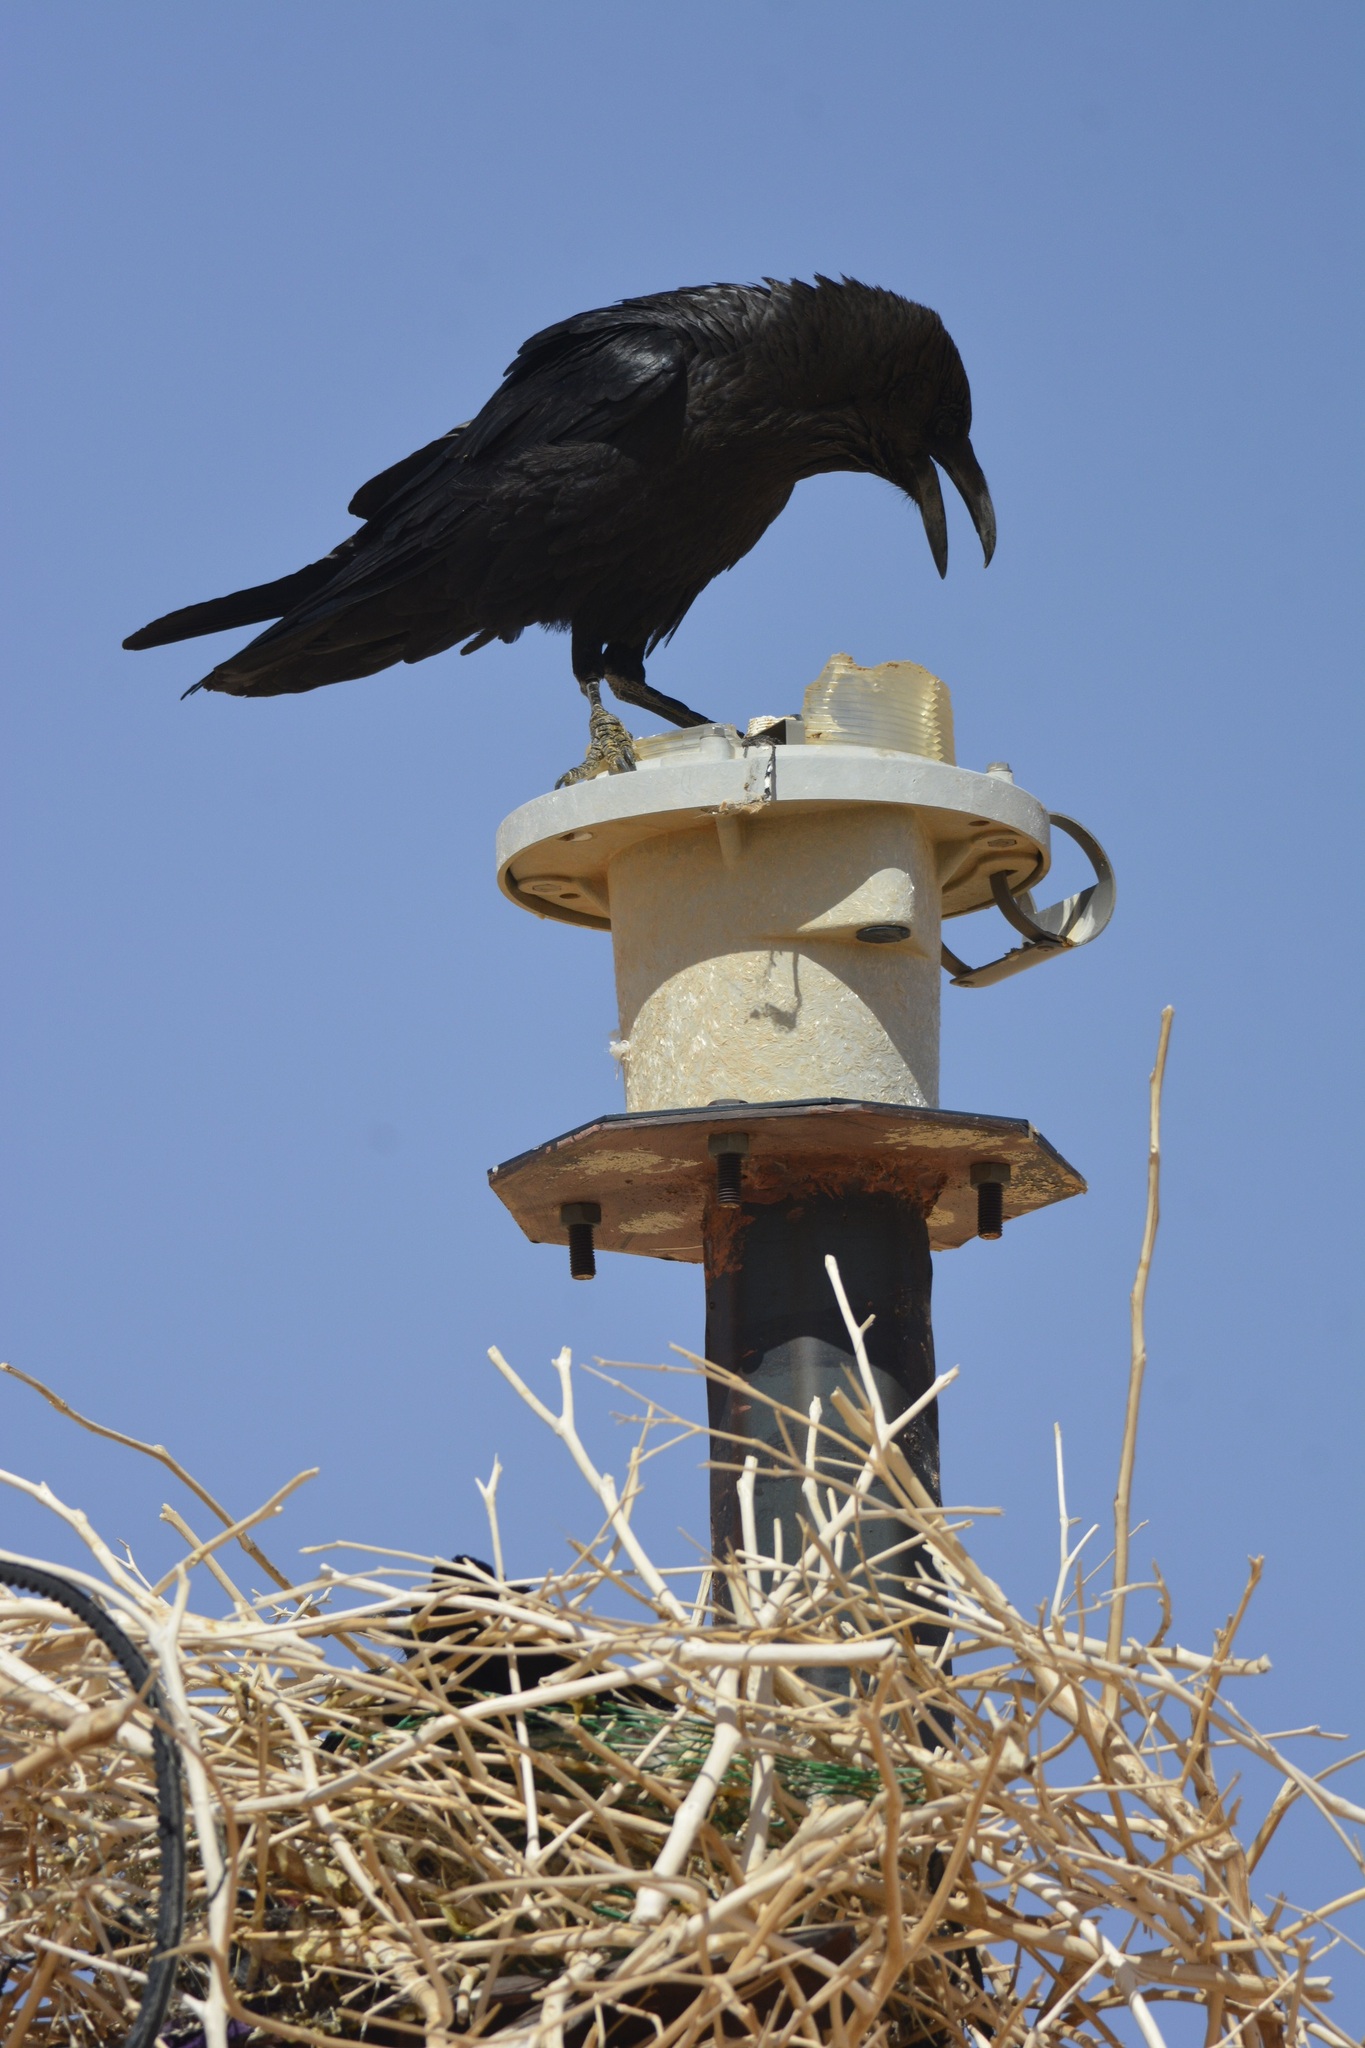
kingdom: Animalia
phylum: Chordata
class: Aves
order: Passeriformes
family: Corvidae
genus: Corvus
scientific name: Corvus ruficollis
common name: Brown-necked raven
